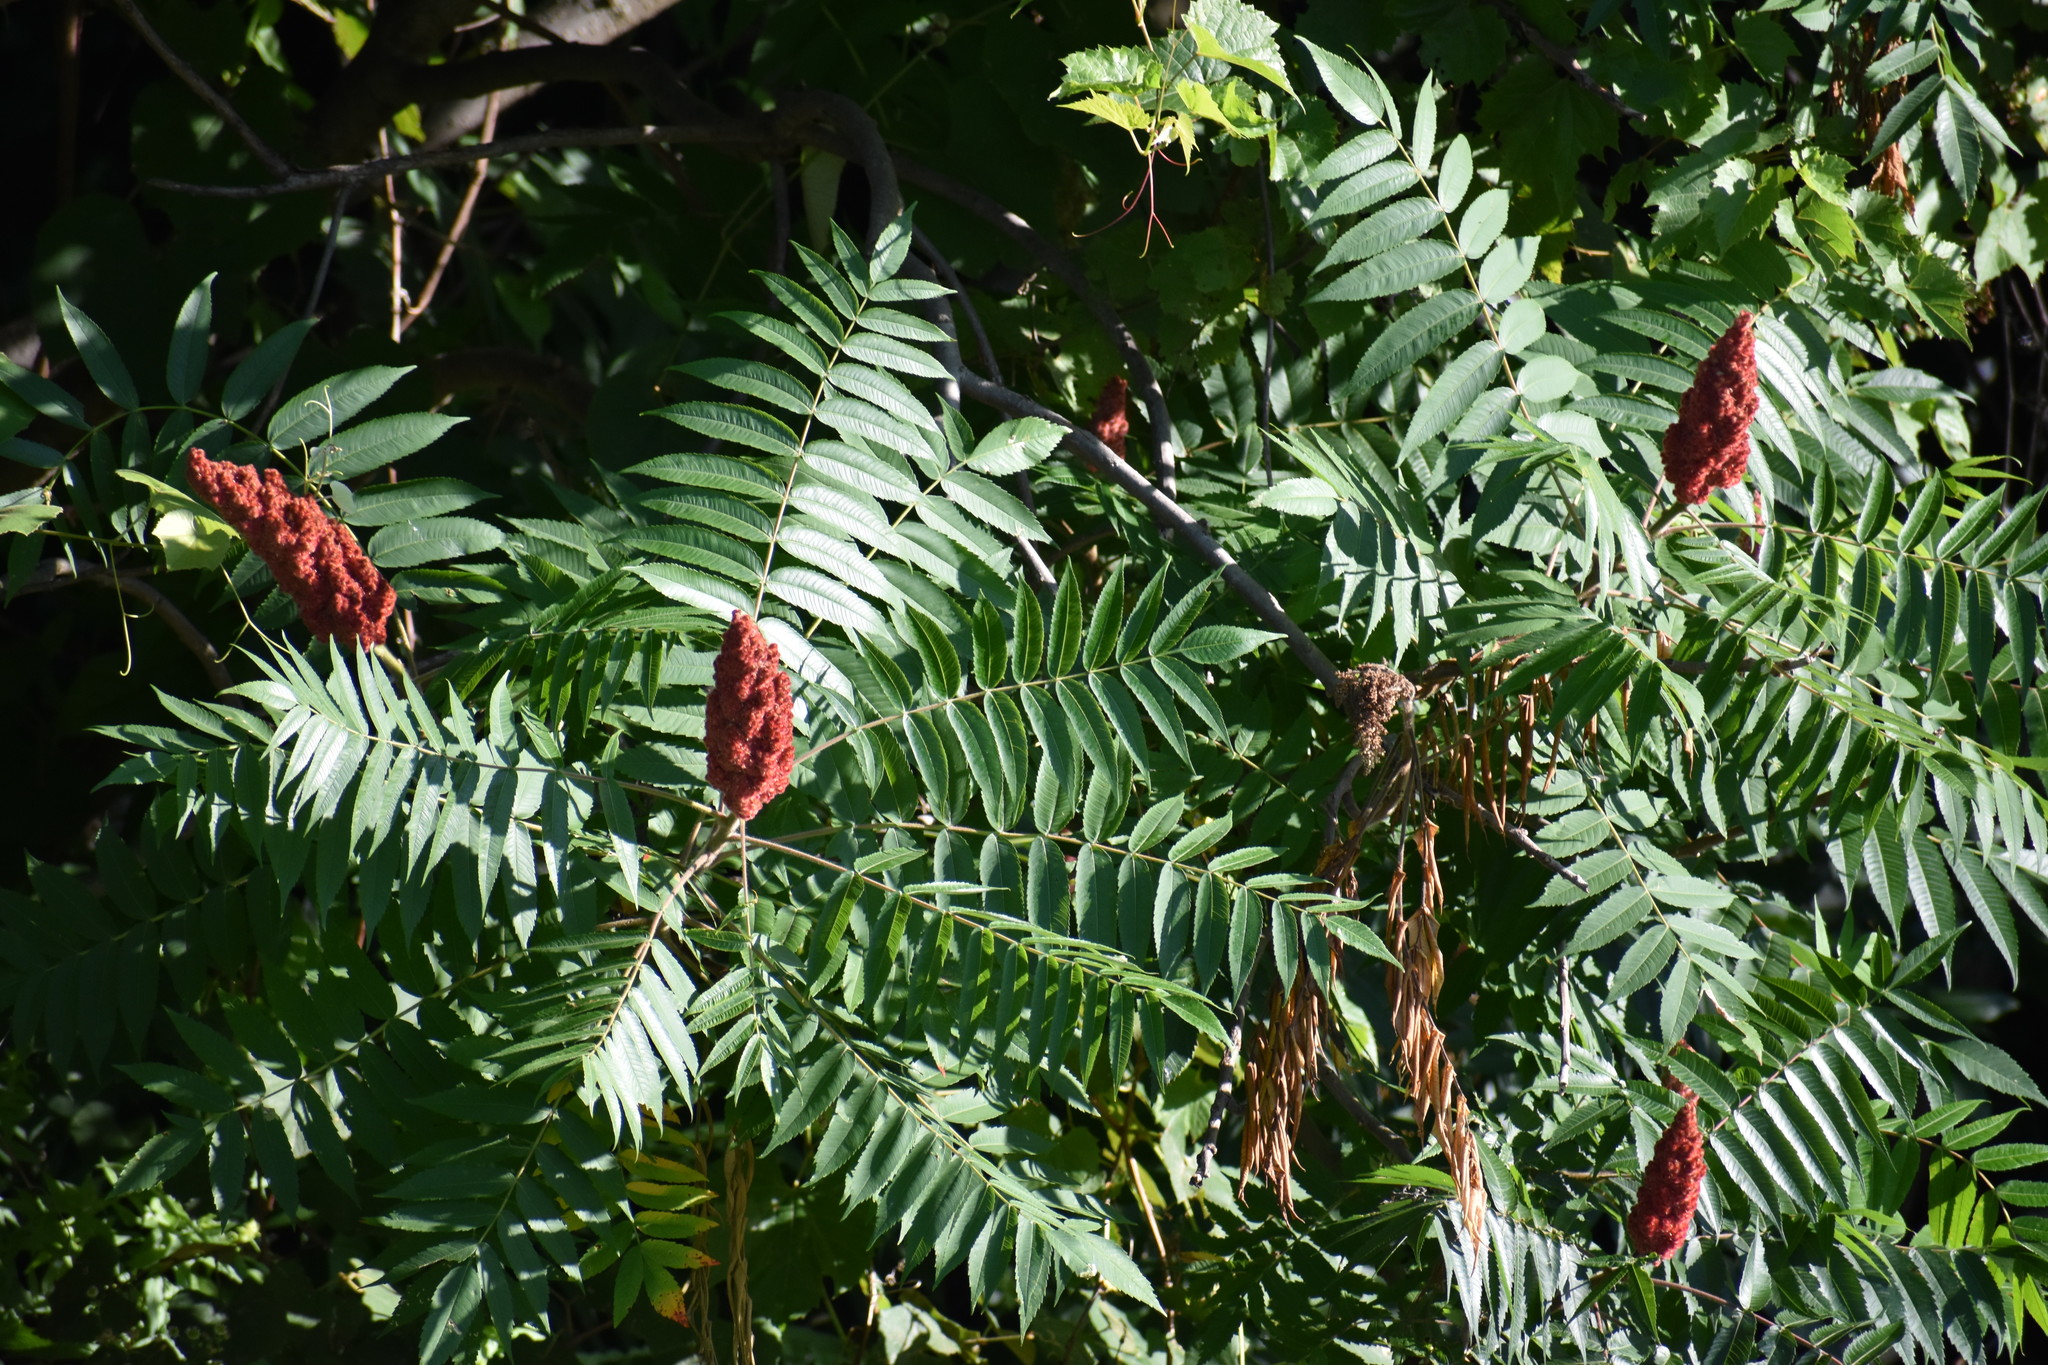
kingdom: Plantae
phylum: Tracheophyta
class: Magnoliopsida
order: Sapindales
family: Anacardiaceae
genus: Rhus
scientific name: Rhus typhina
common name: Staghorn sumac
